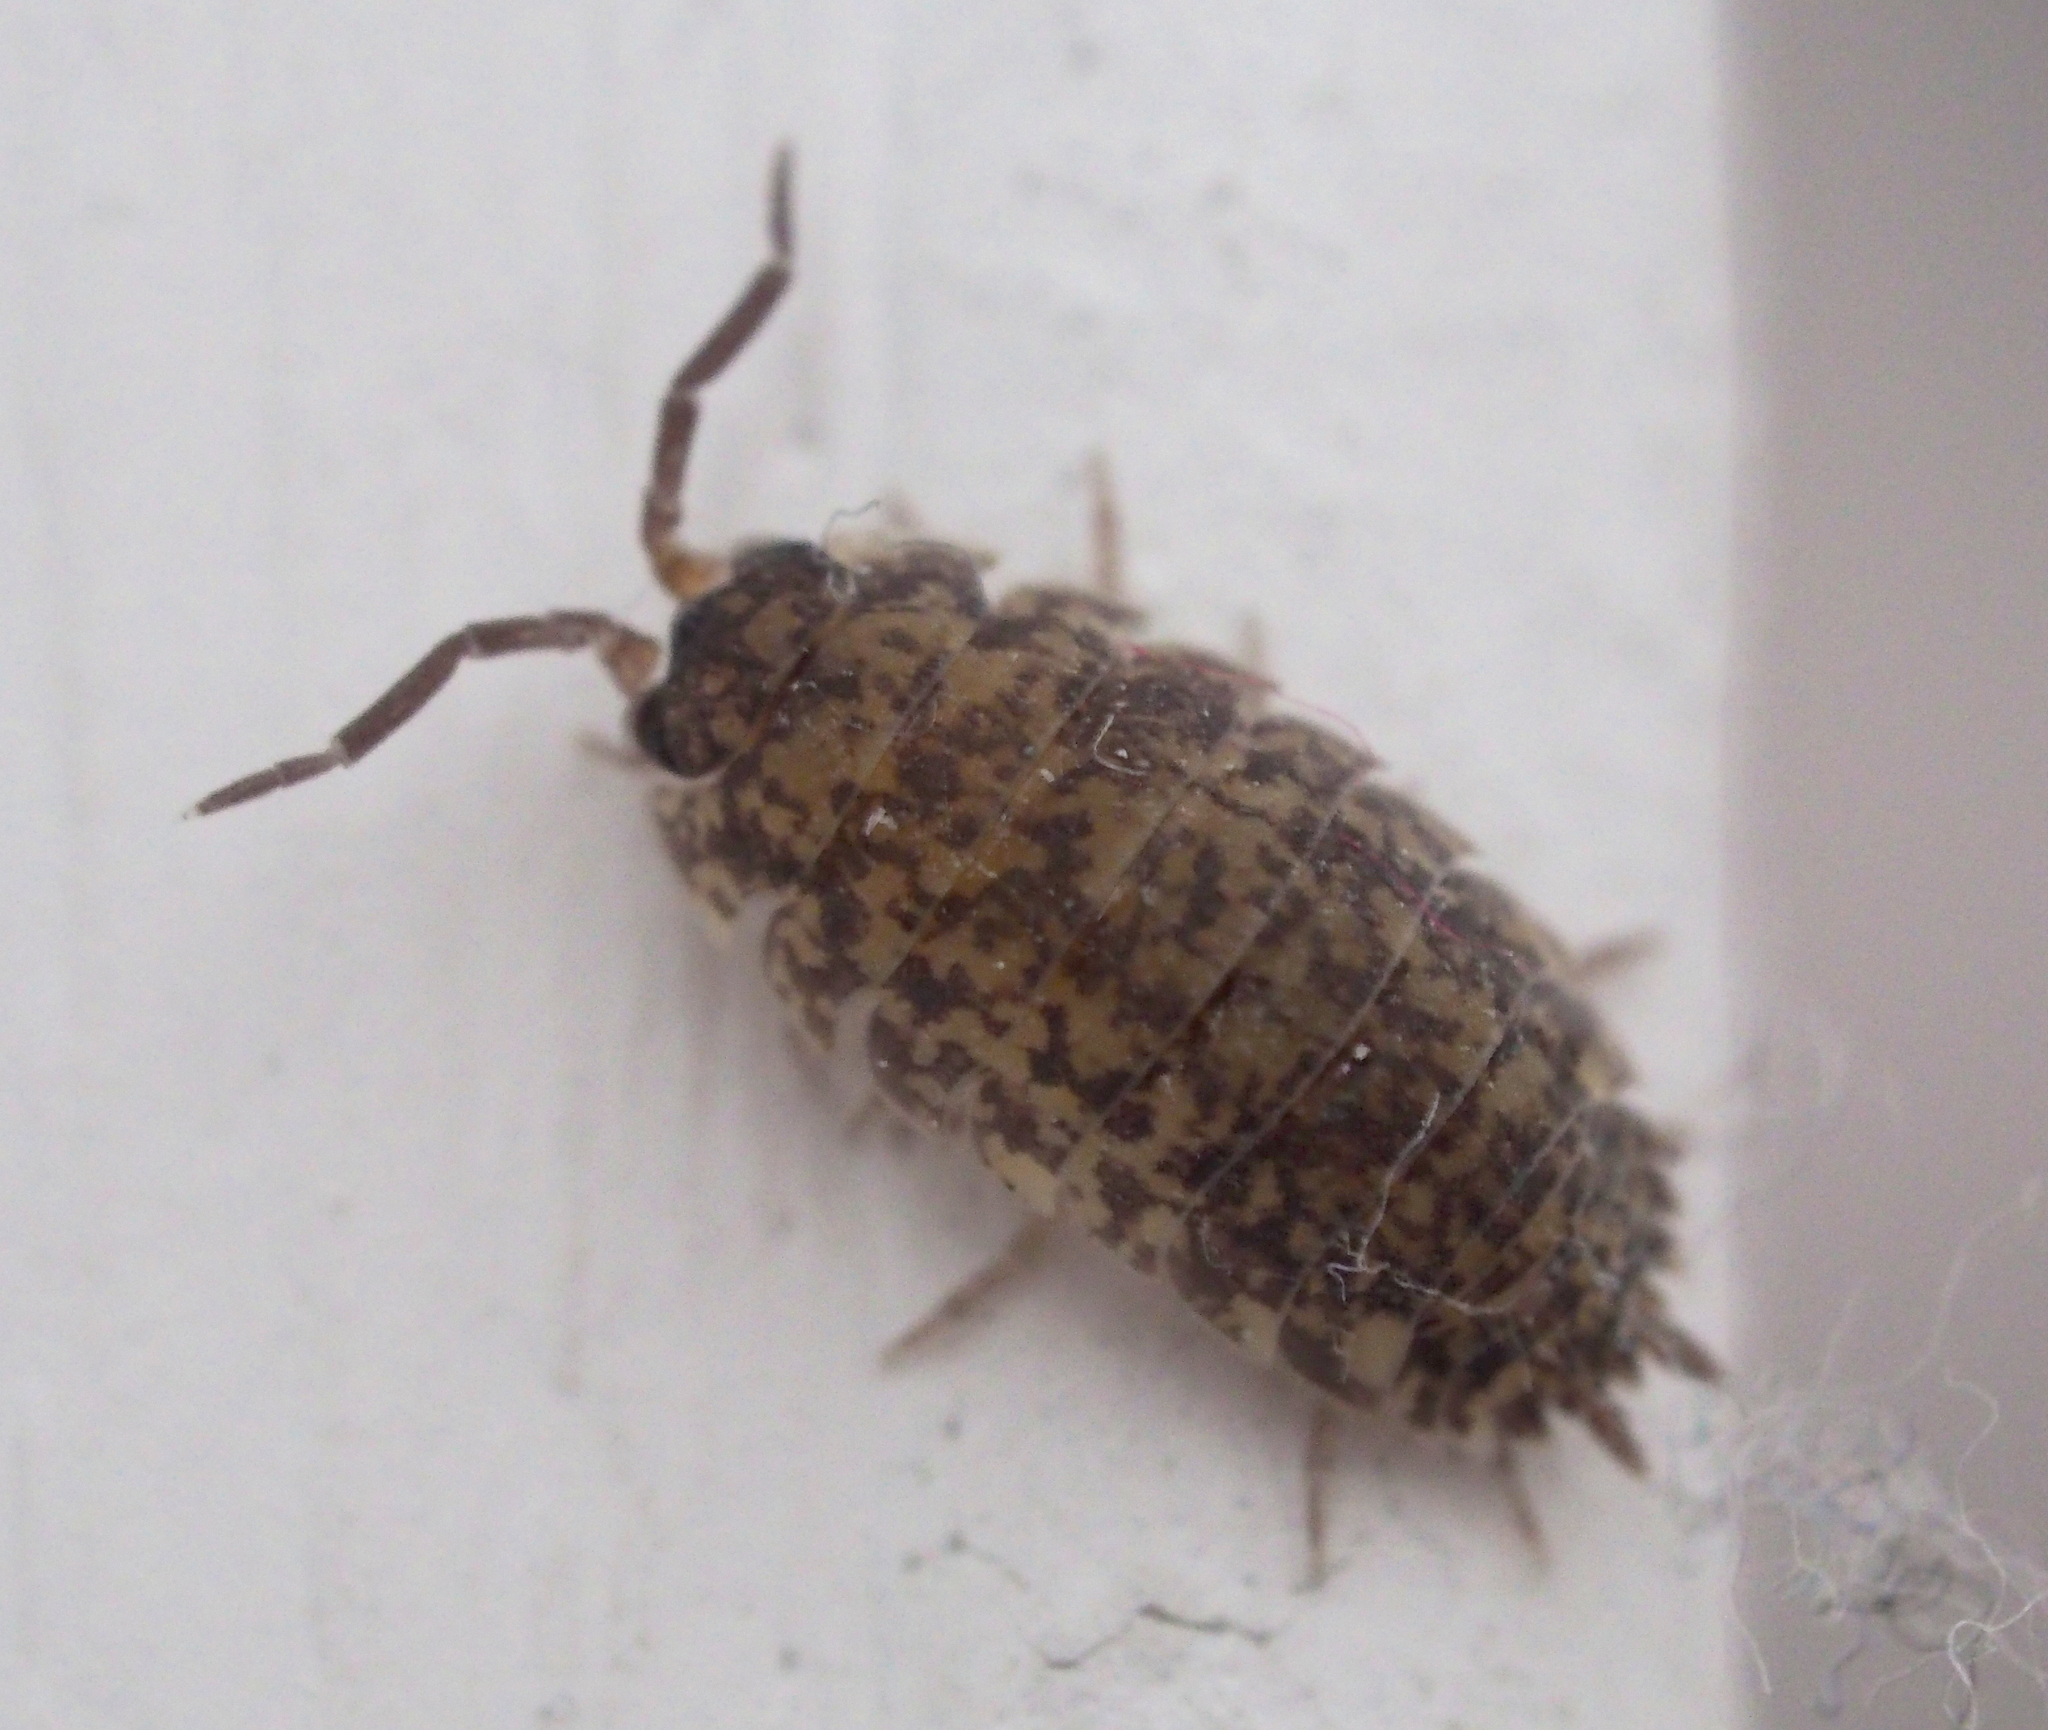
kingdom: Animalia
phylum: Arthropoda
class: Malacostraca
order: Isopoda
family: Porcellionidae
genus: Porcellio
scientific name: Porcellio scaber
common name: Common rough woodlouse
